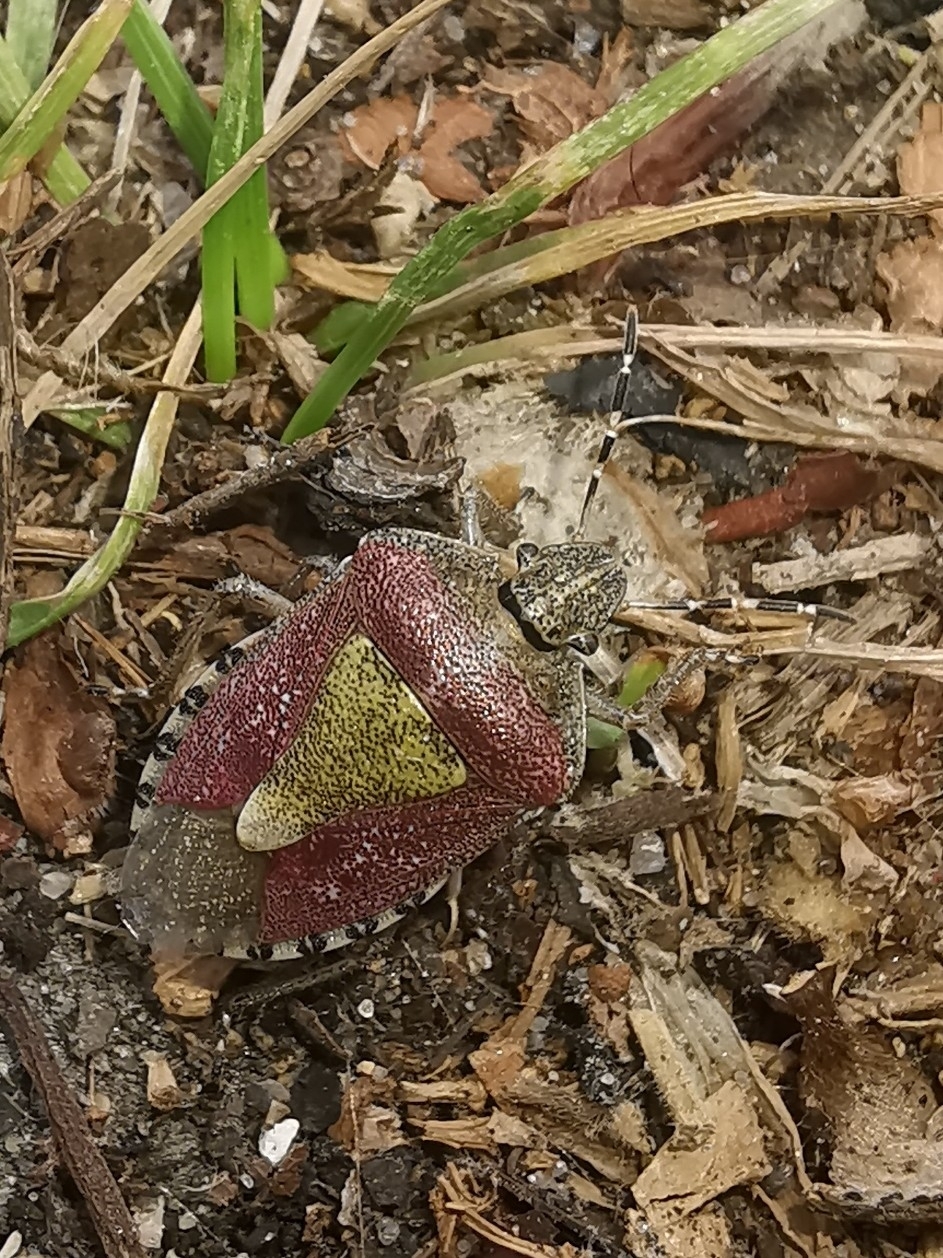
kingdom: Animalia
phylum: Arthropoda
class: Insecta
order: Hemiptera
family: Pentatomidae
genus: Dolycoris
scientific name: Dolycoris baccarum
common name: Sloe bug
